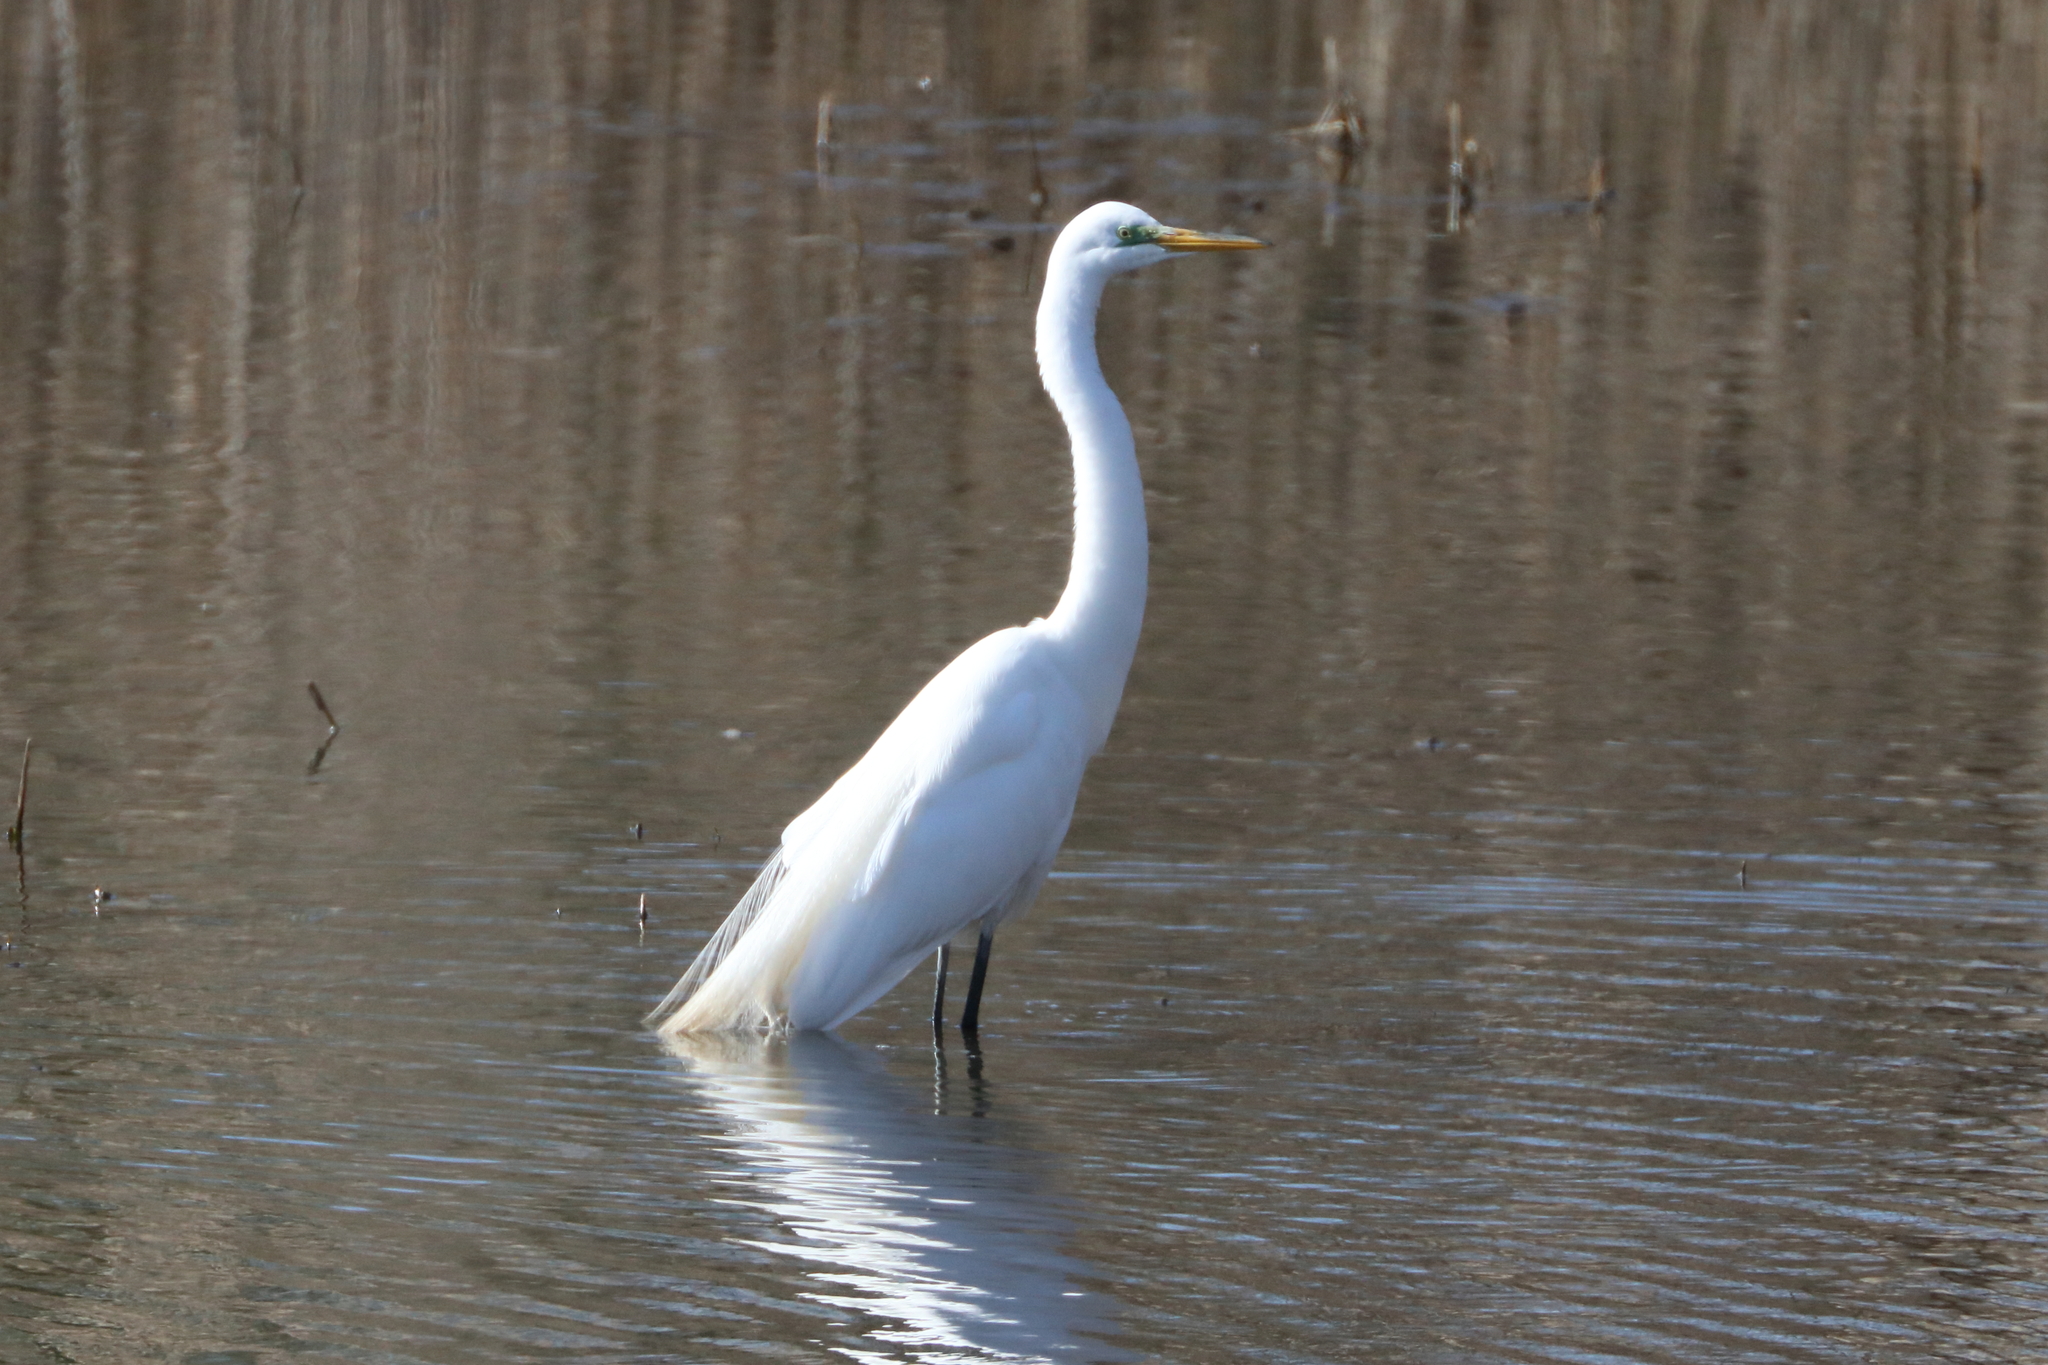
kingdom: Animalia
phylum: Chordata
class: Aves
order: Pelecaniformes
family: Ardeidae
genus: Ardea
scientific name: Ardea alba
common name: Great egret
